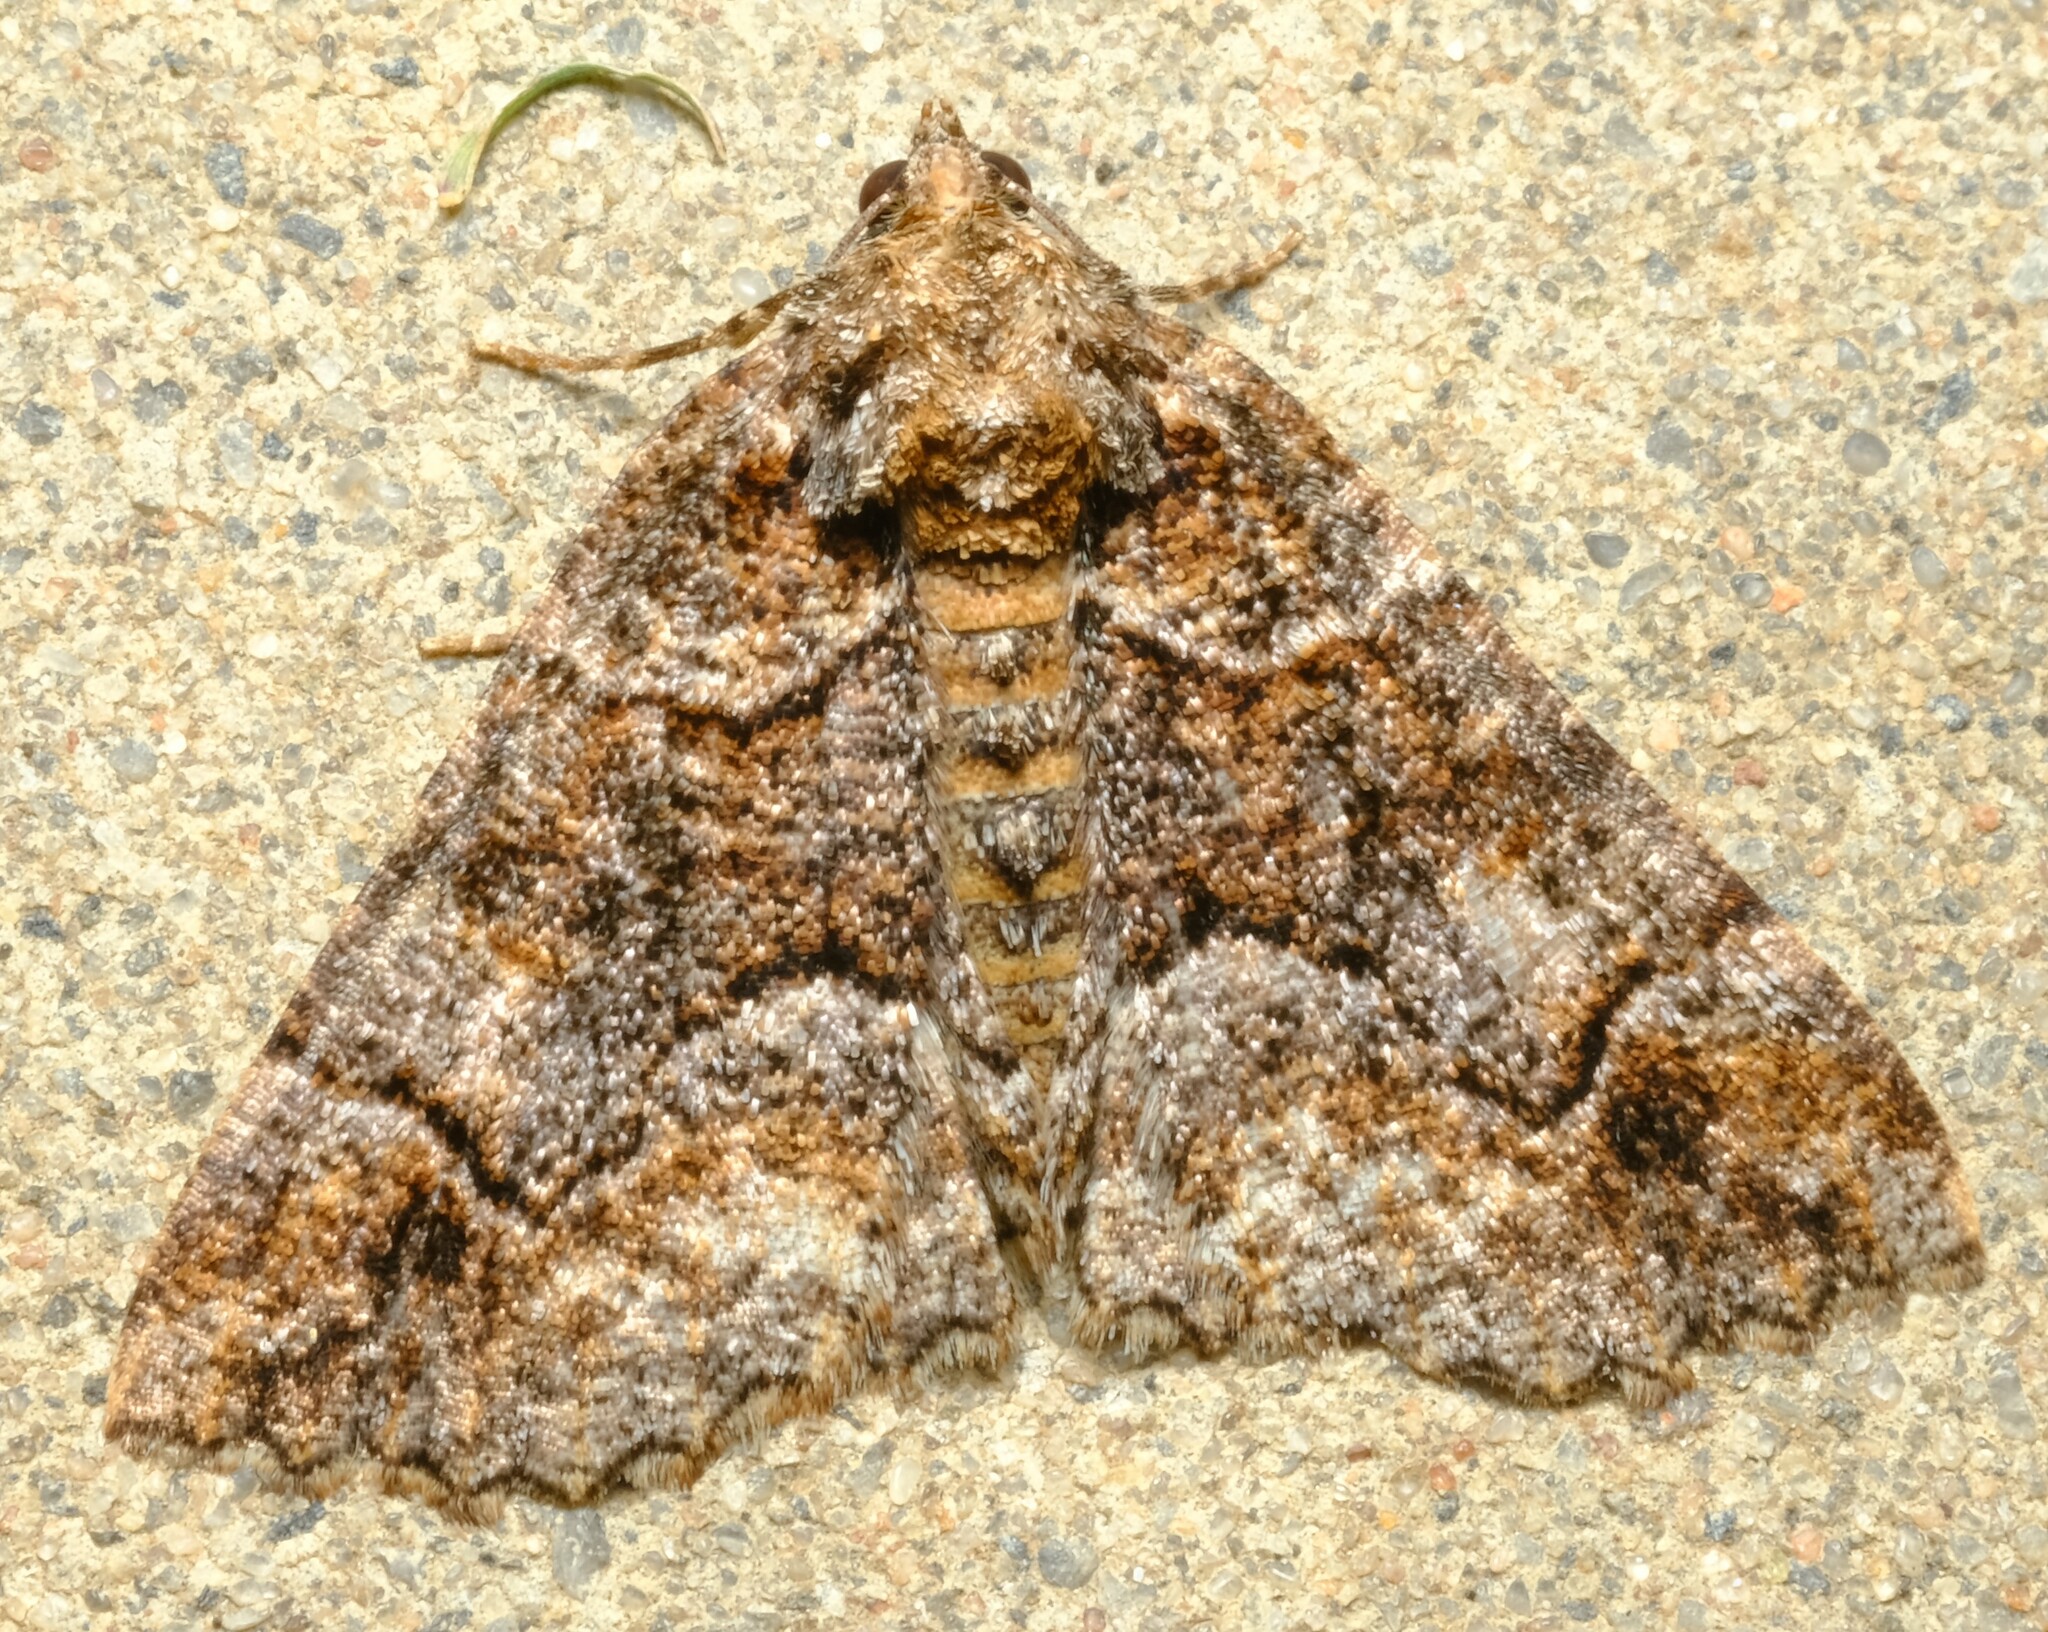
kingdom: Animalia
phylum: Arthropoda
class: Insecta
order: Lepidoptera
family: Geometridae
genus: Gastrina
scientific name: Gastrina cristaria
